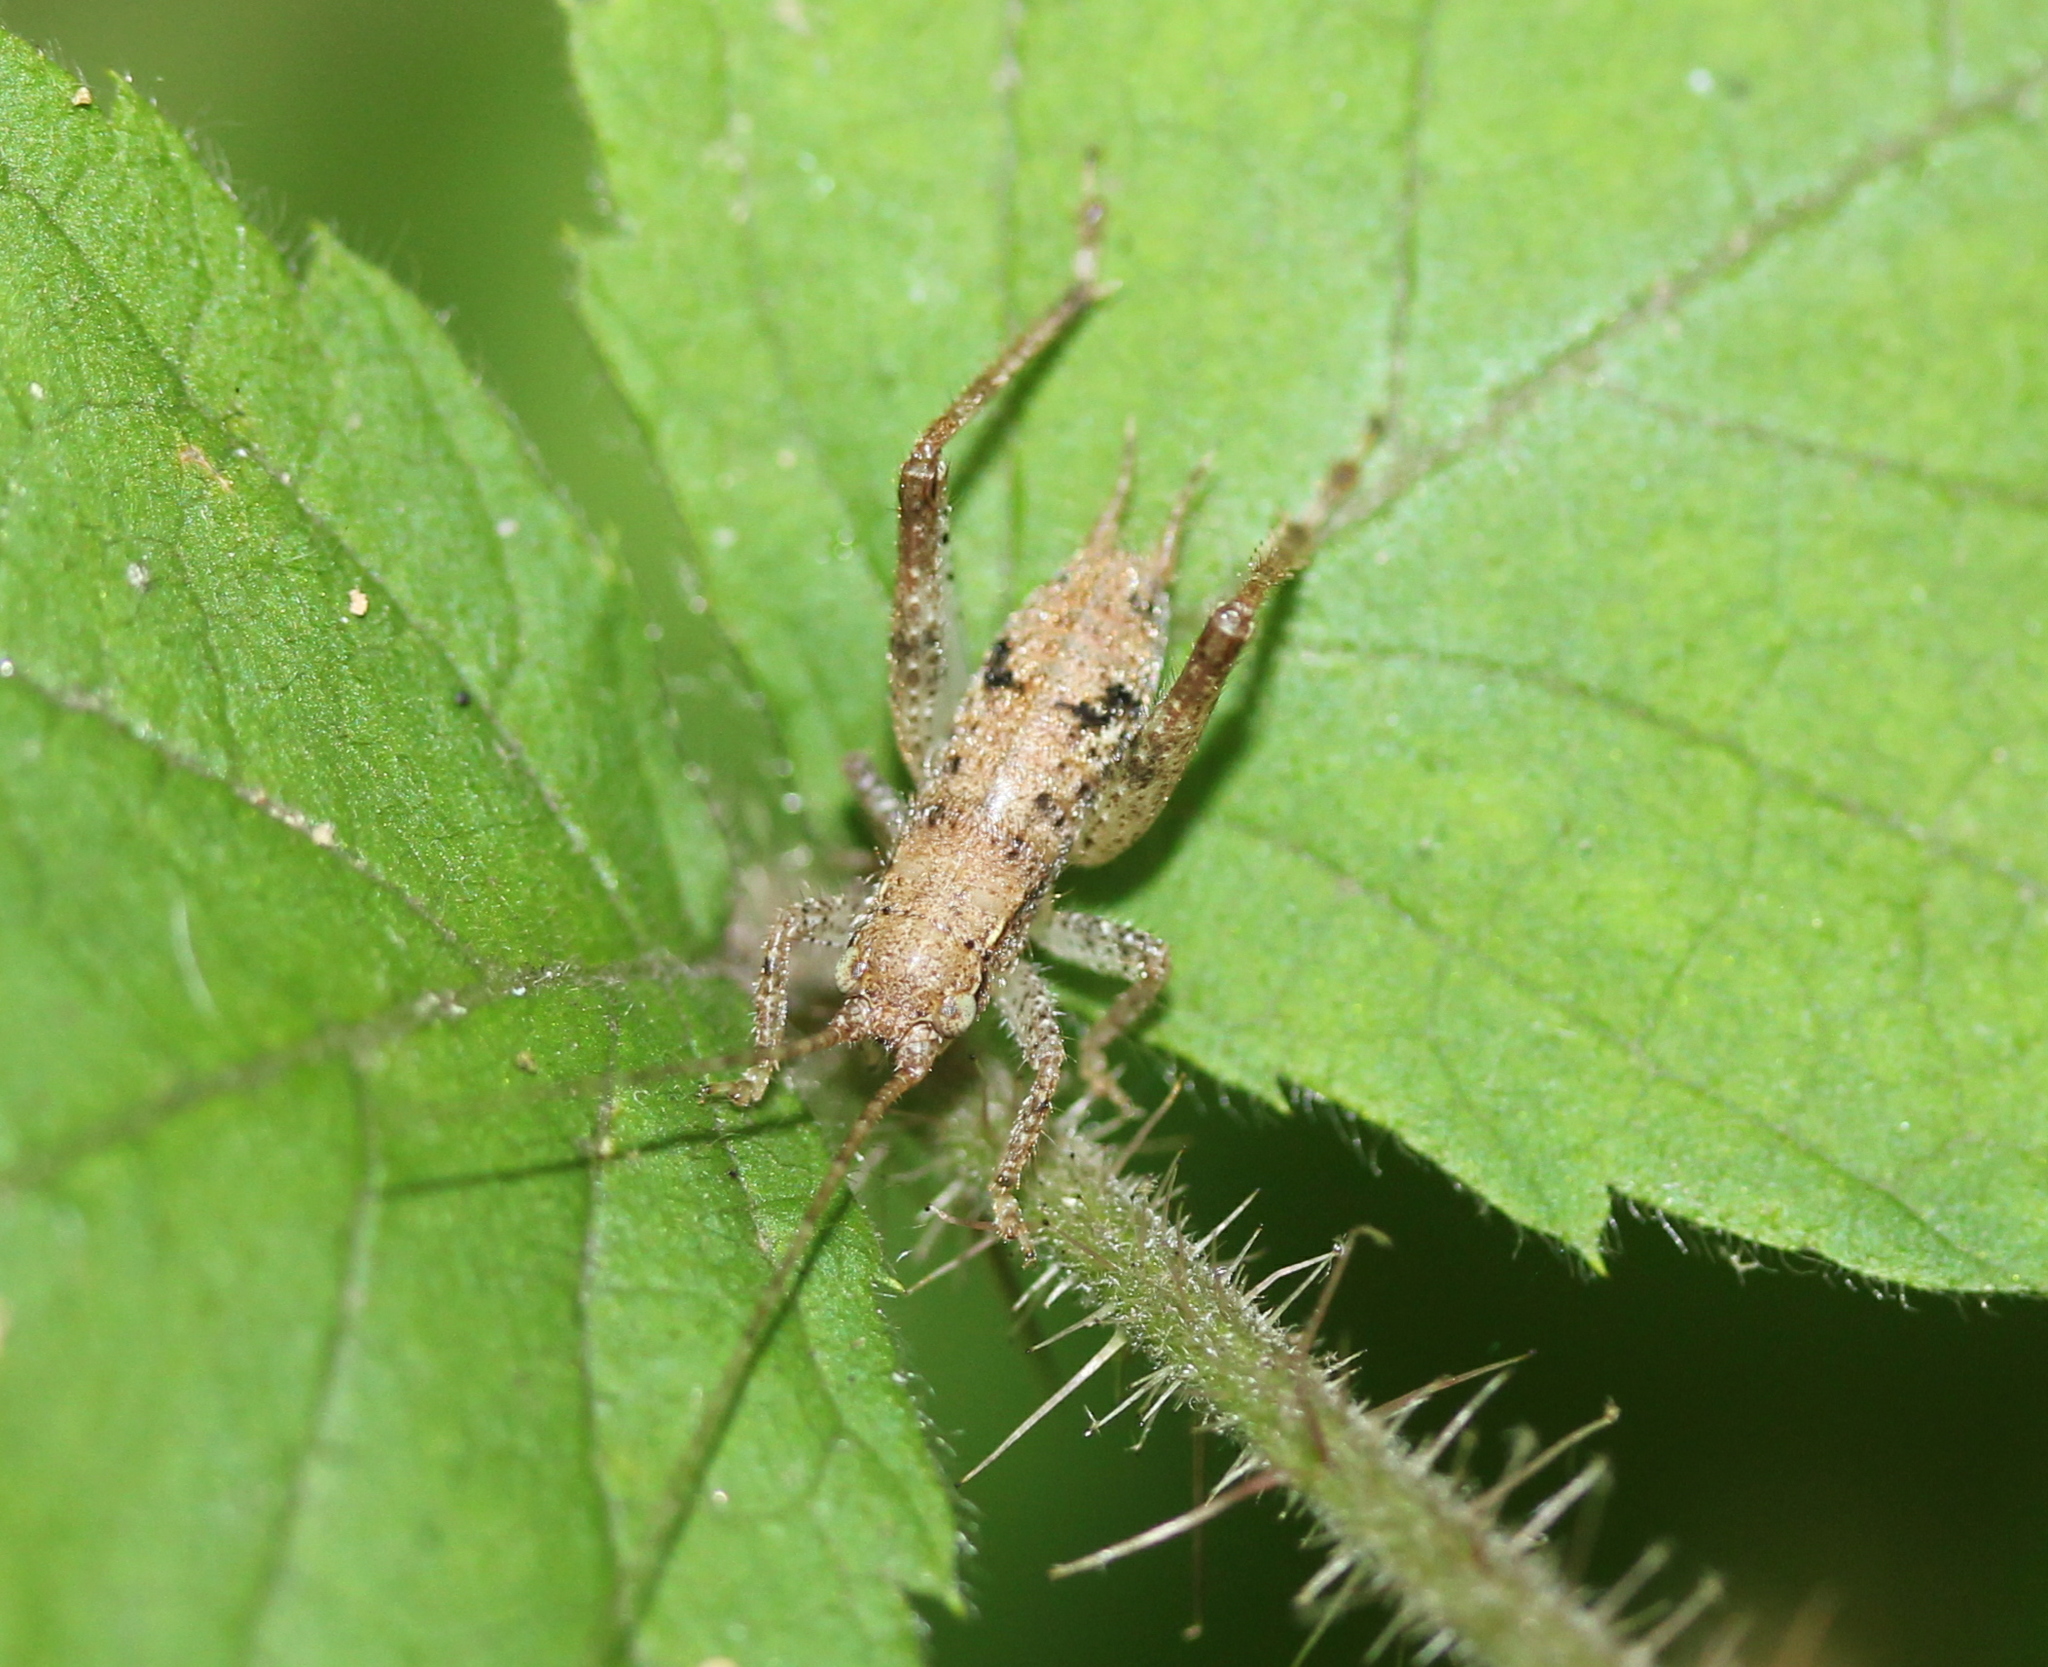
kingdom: Animalia
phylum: Arthropoda
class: Insecta
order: Orthoptera
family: Gryllidae
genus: Hapithus
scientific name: Hapithus saltator
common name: Jumping bush cricket
